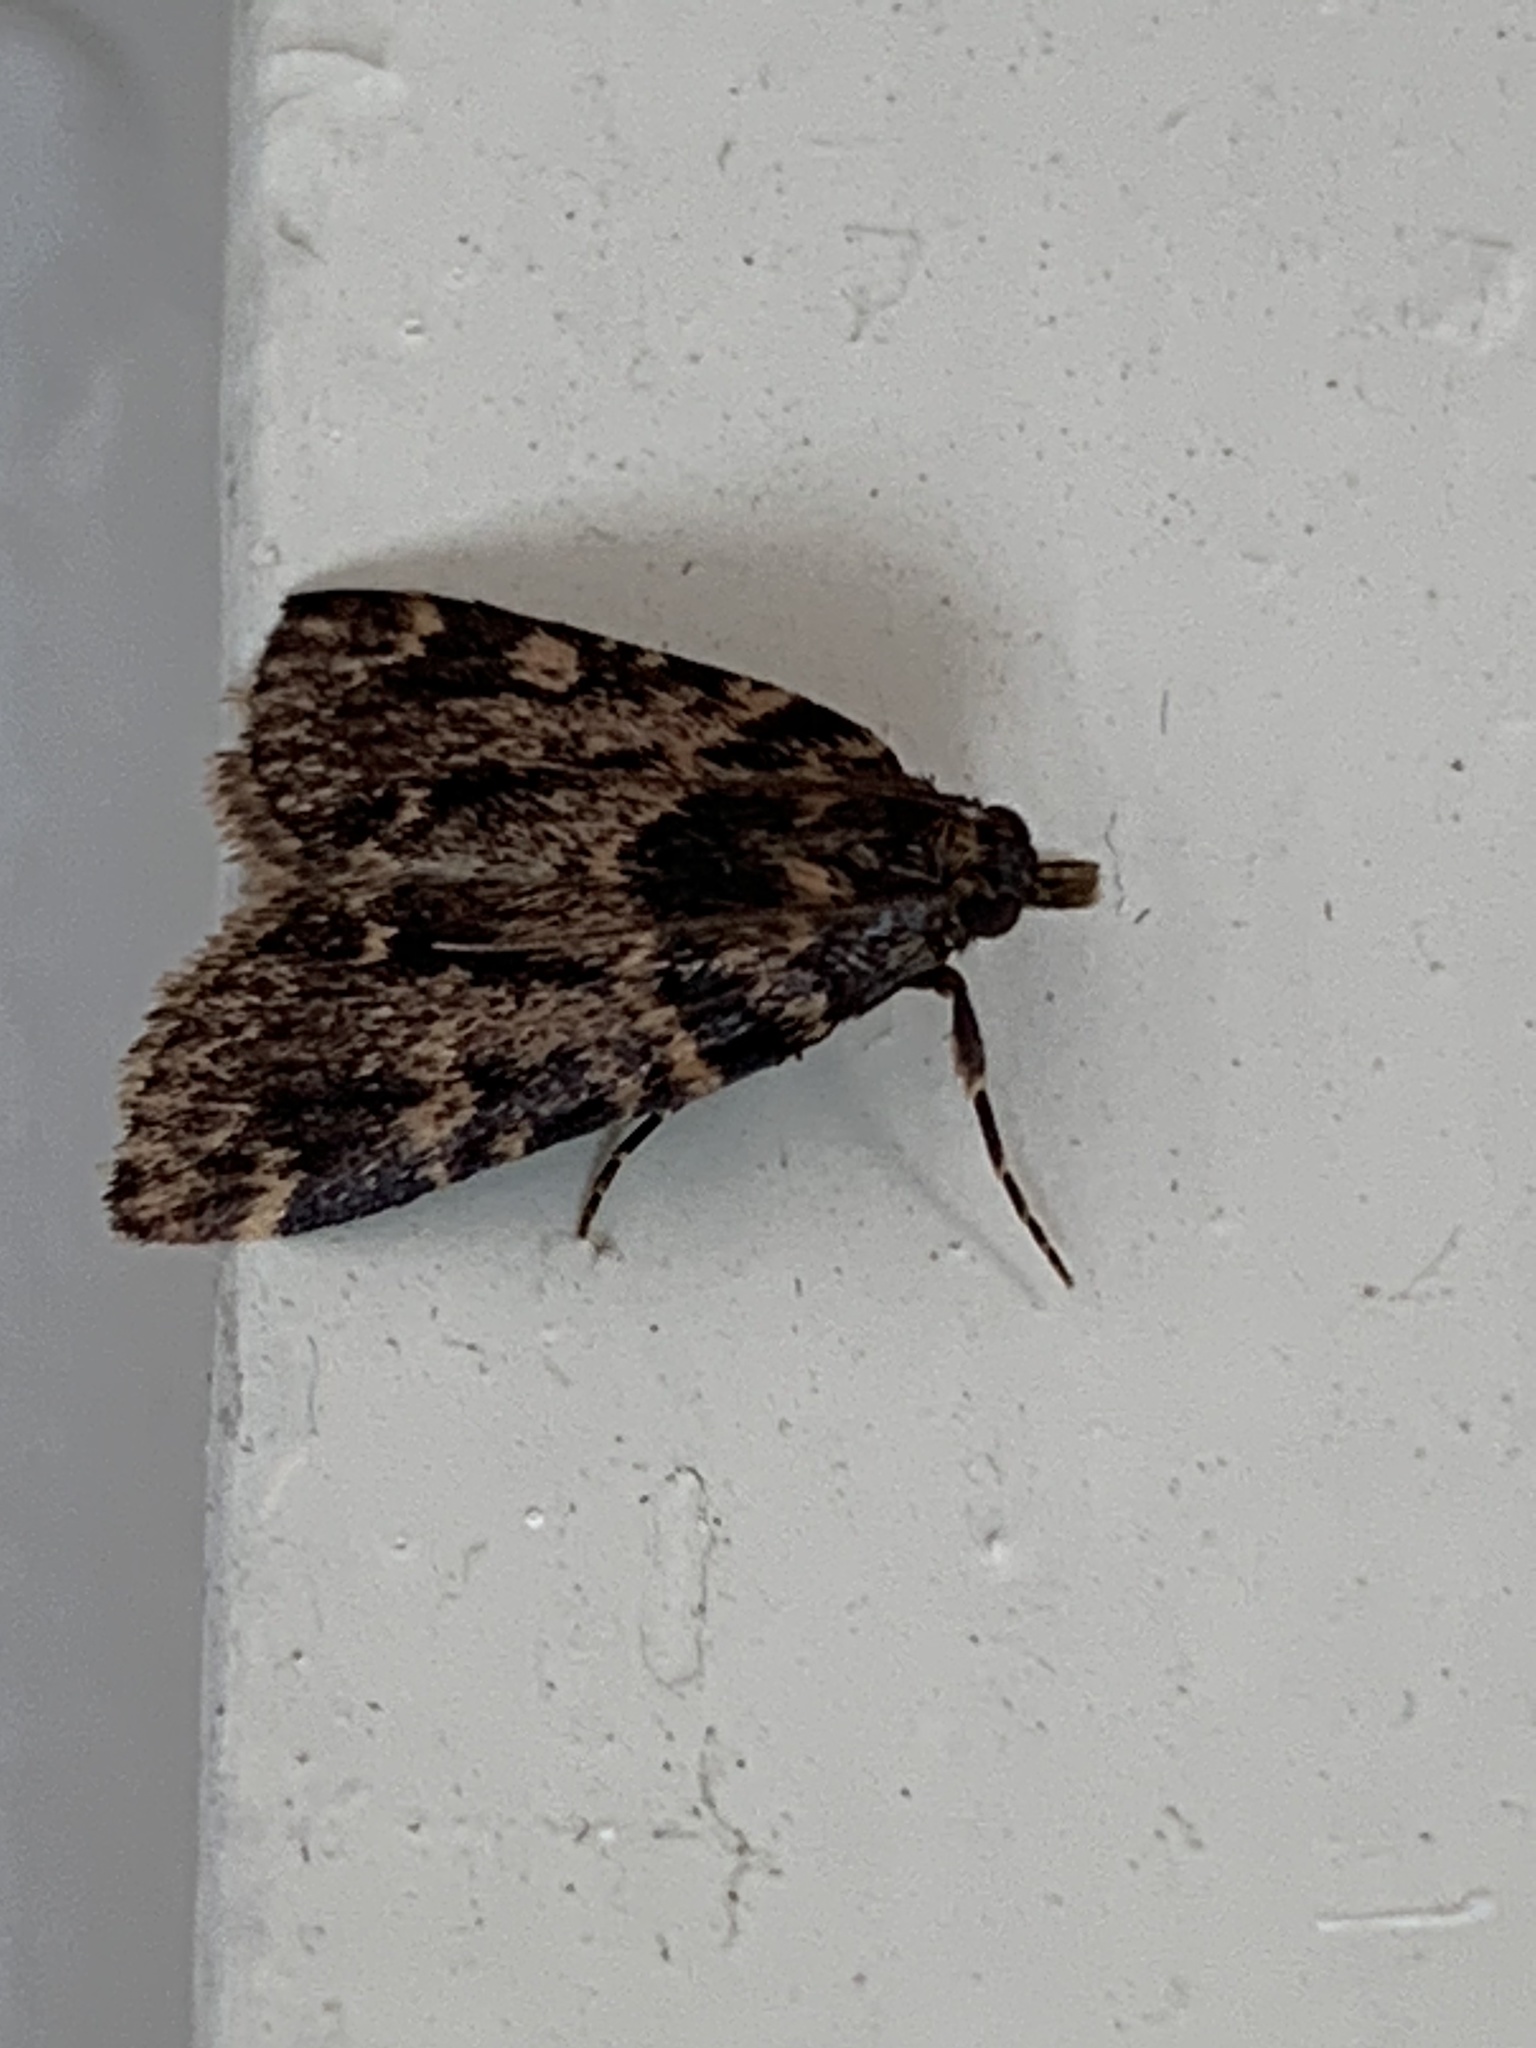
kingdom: Animalia
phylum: Arthropoda
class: Insecta
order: Lepidoptera
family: Pyralidae
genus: Aglossa
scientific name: Aglossa caprealis
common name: Small tabby
